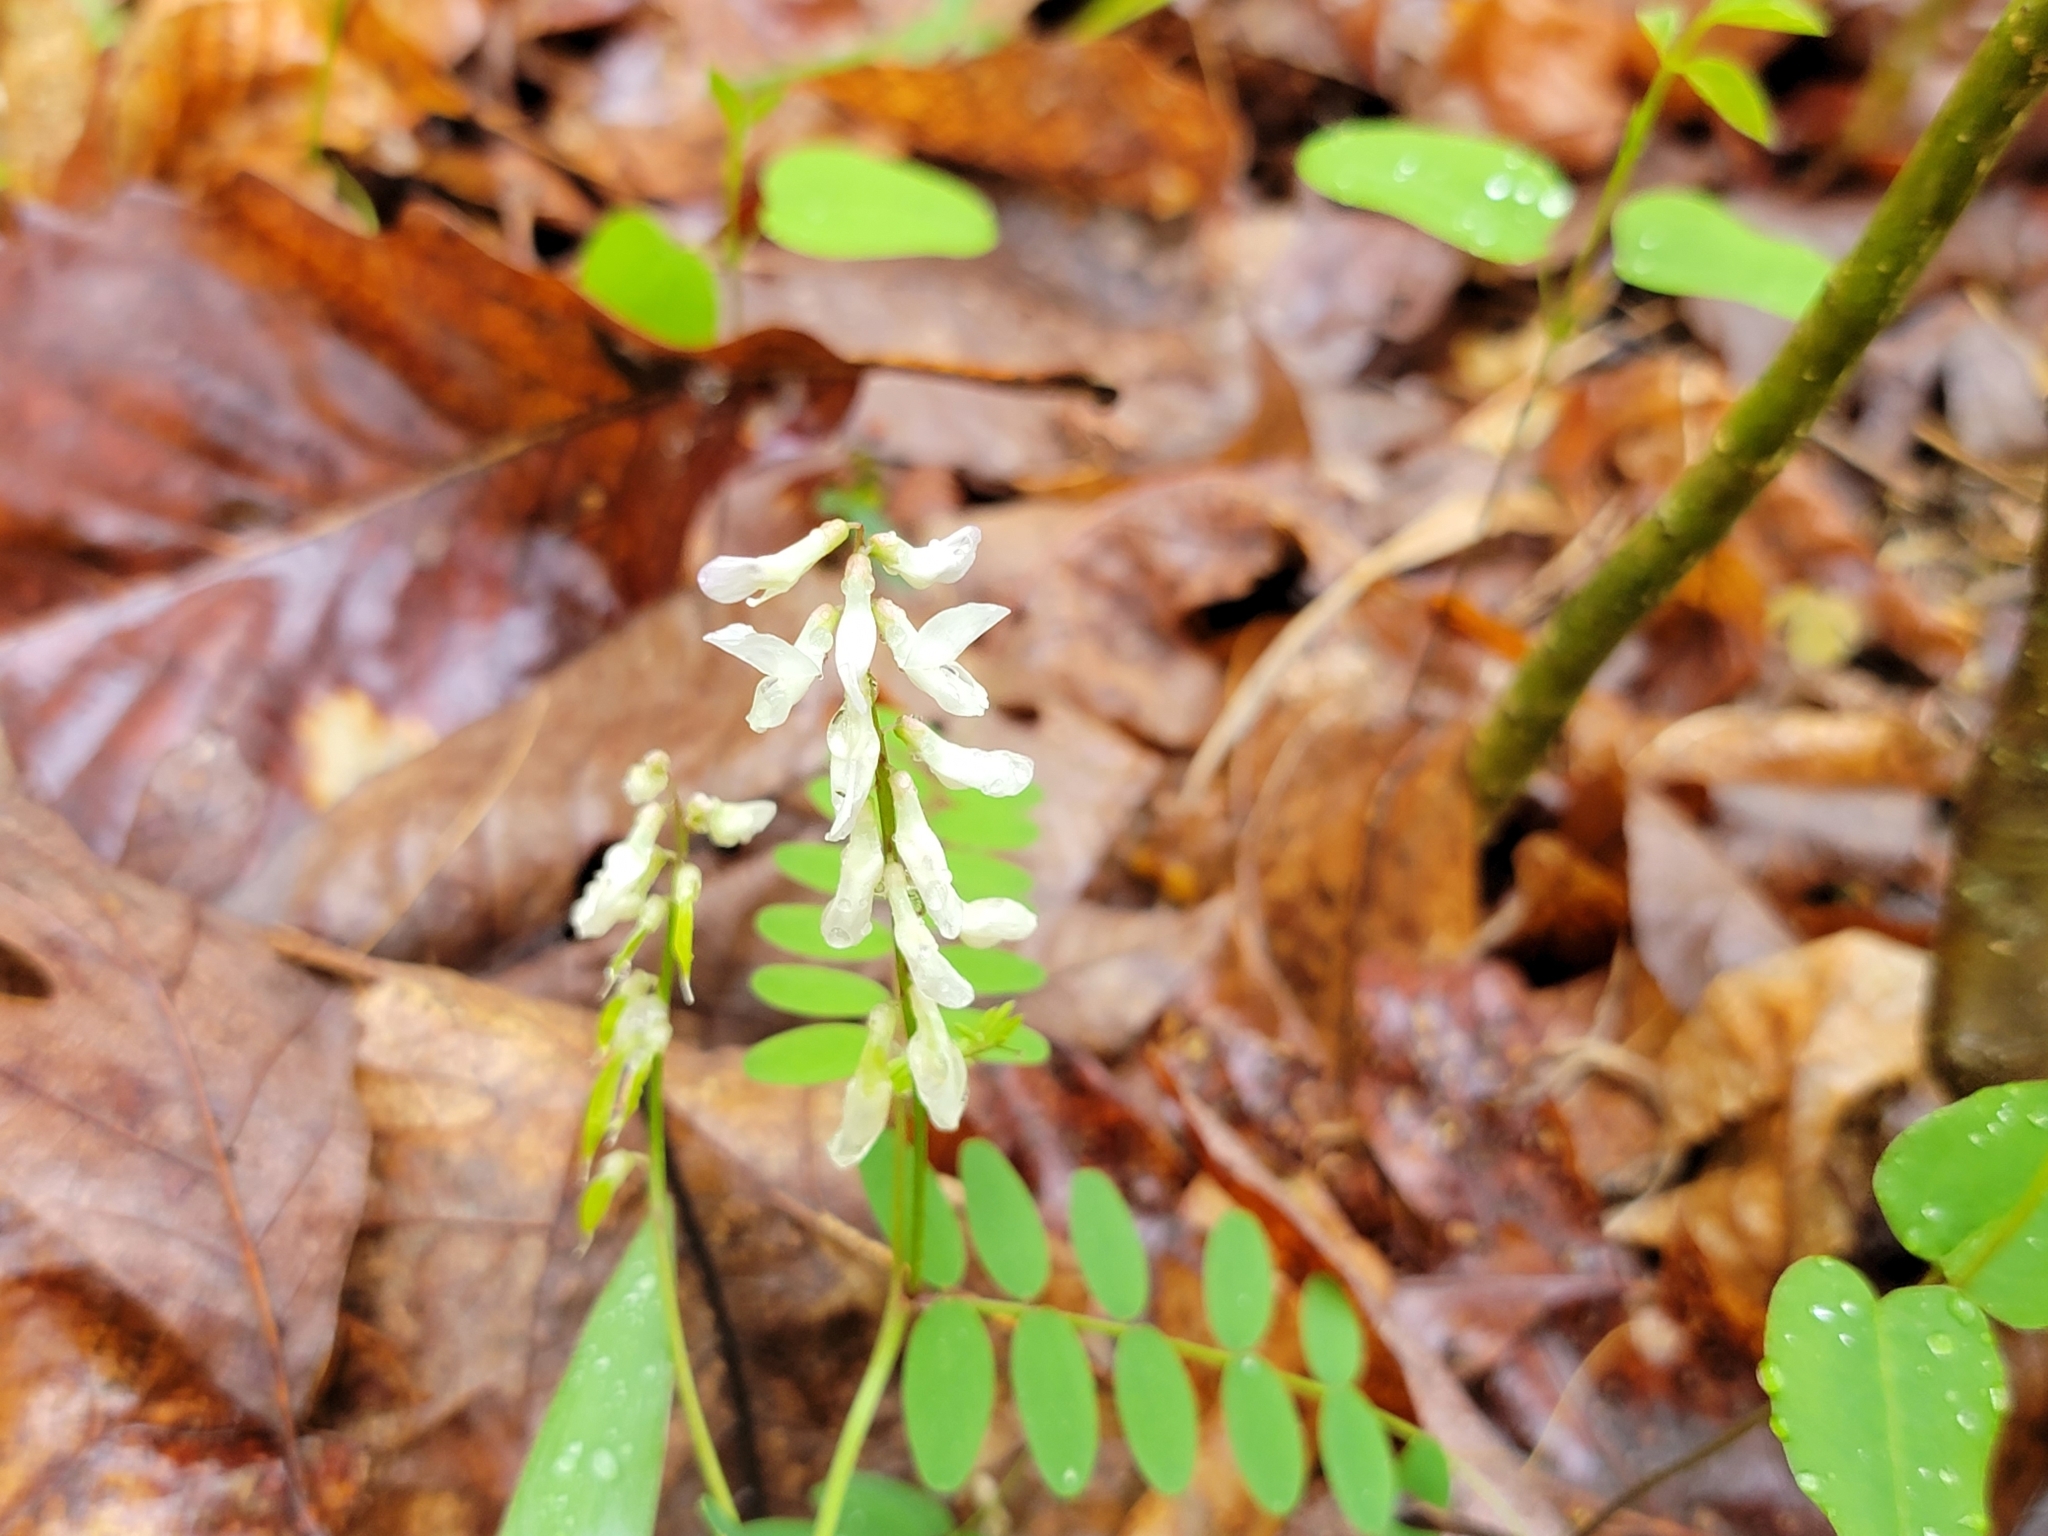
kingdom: Plantae
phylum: Tracheophyta
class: Magnoliopsida
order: Fabales
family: Fabaceae
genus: Vicia
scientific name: Vicia caroliniana
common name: Carolina vetch
